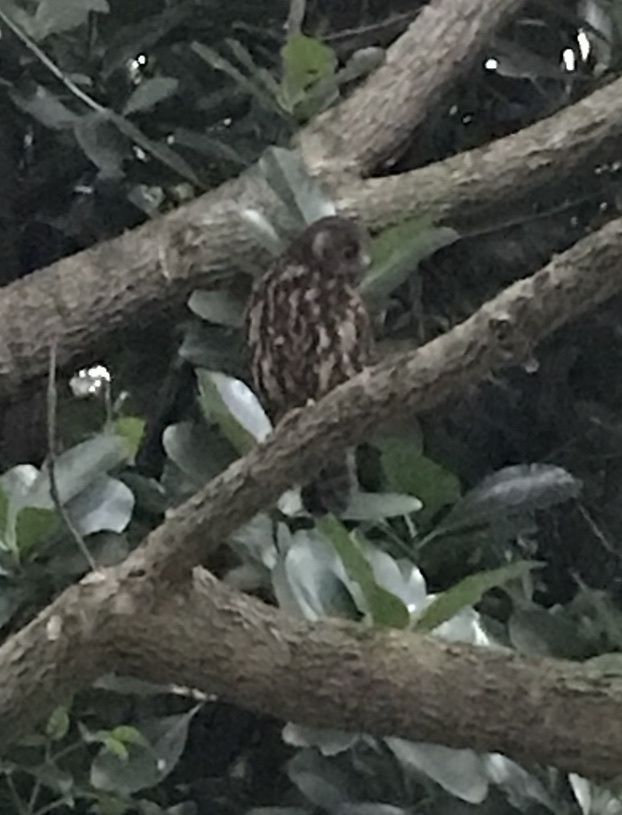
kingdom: Animalia
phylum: Chordata
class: Aves
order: Strigiformes
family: Strigidae
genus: Ninox
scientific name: Ninox novaeseelandiae
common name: Morepork
